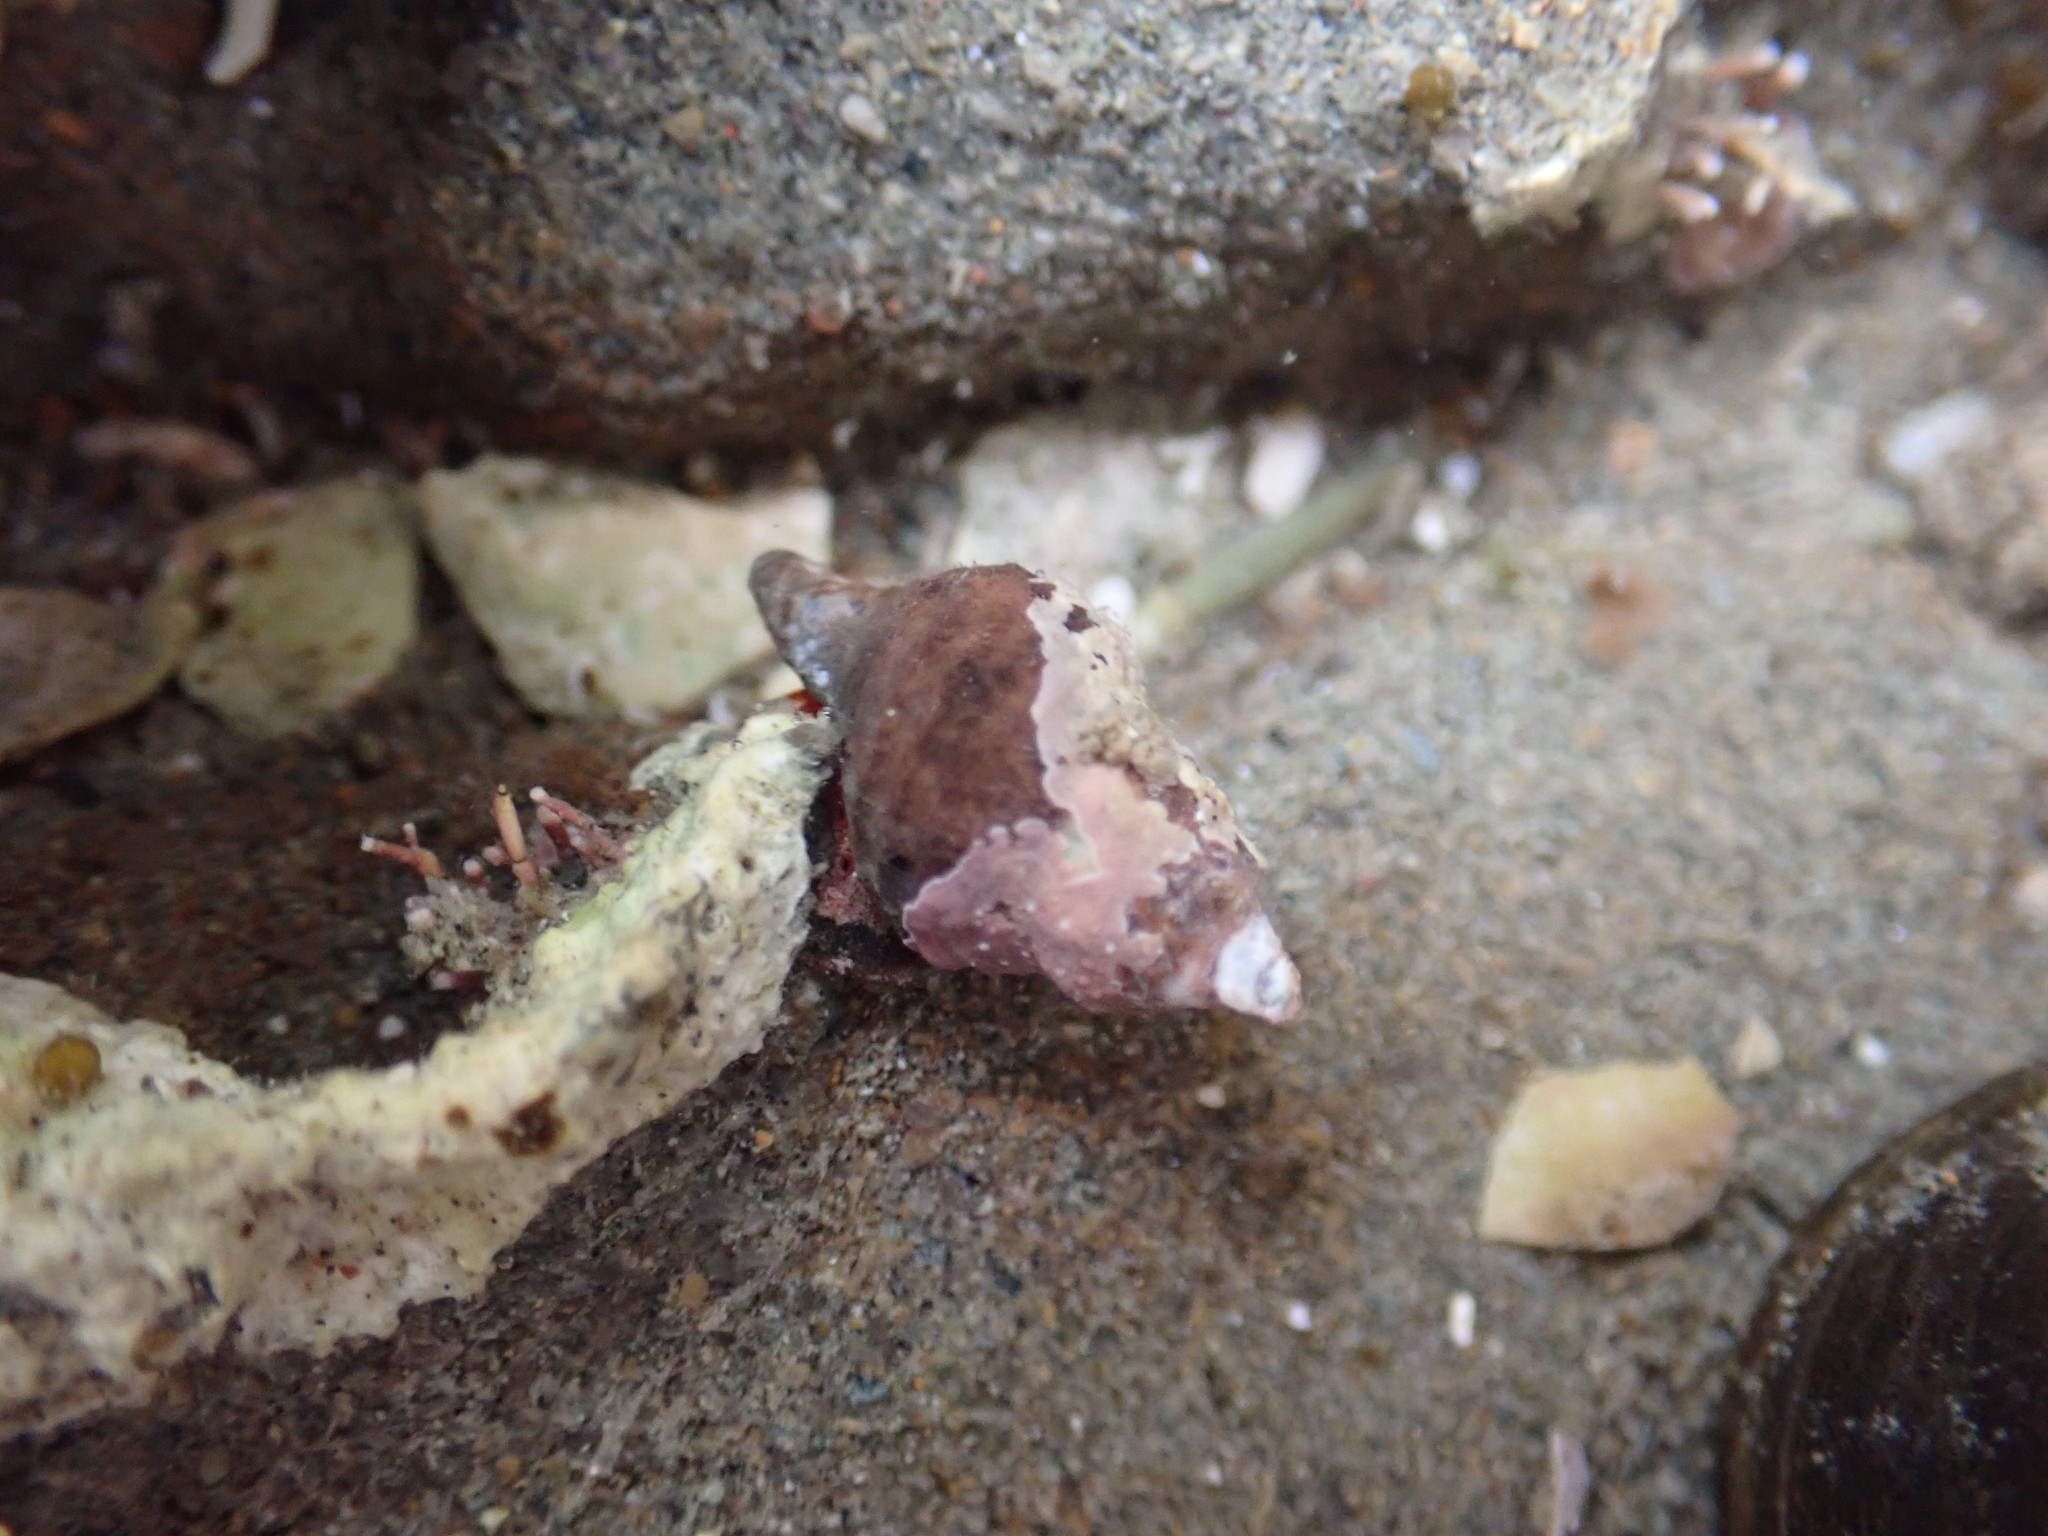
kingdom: Animalia
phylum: Mollusca
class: Gastropoda
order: Neogastropoda
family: Fasciolariidae
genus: Taron
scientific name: Taron dubius
